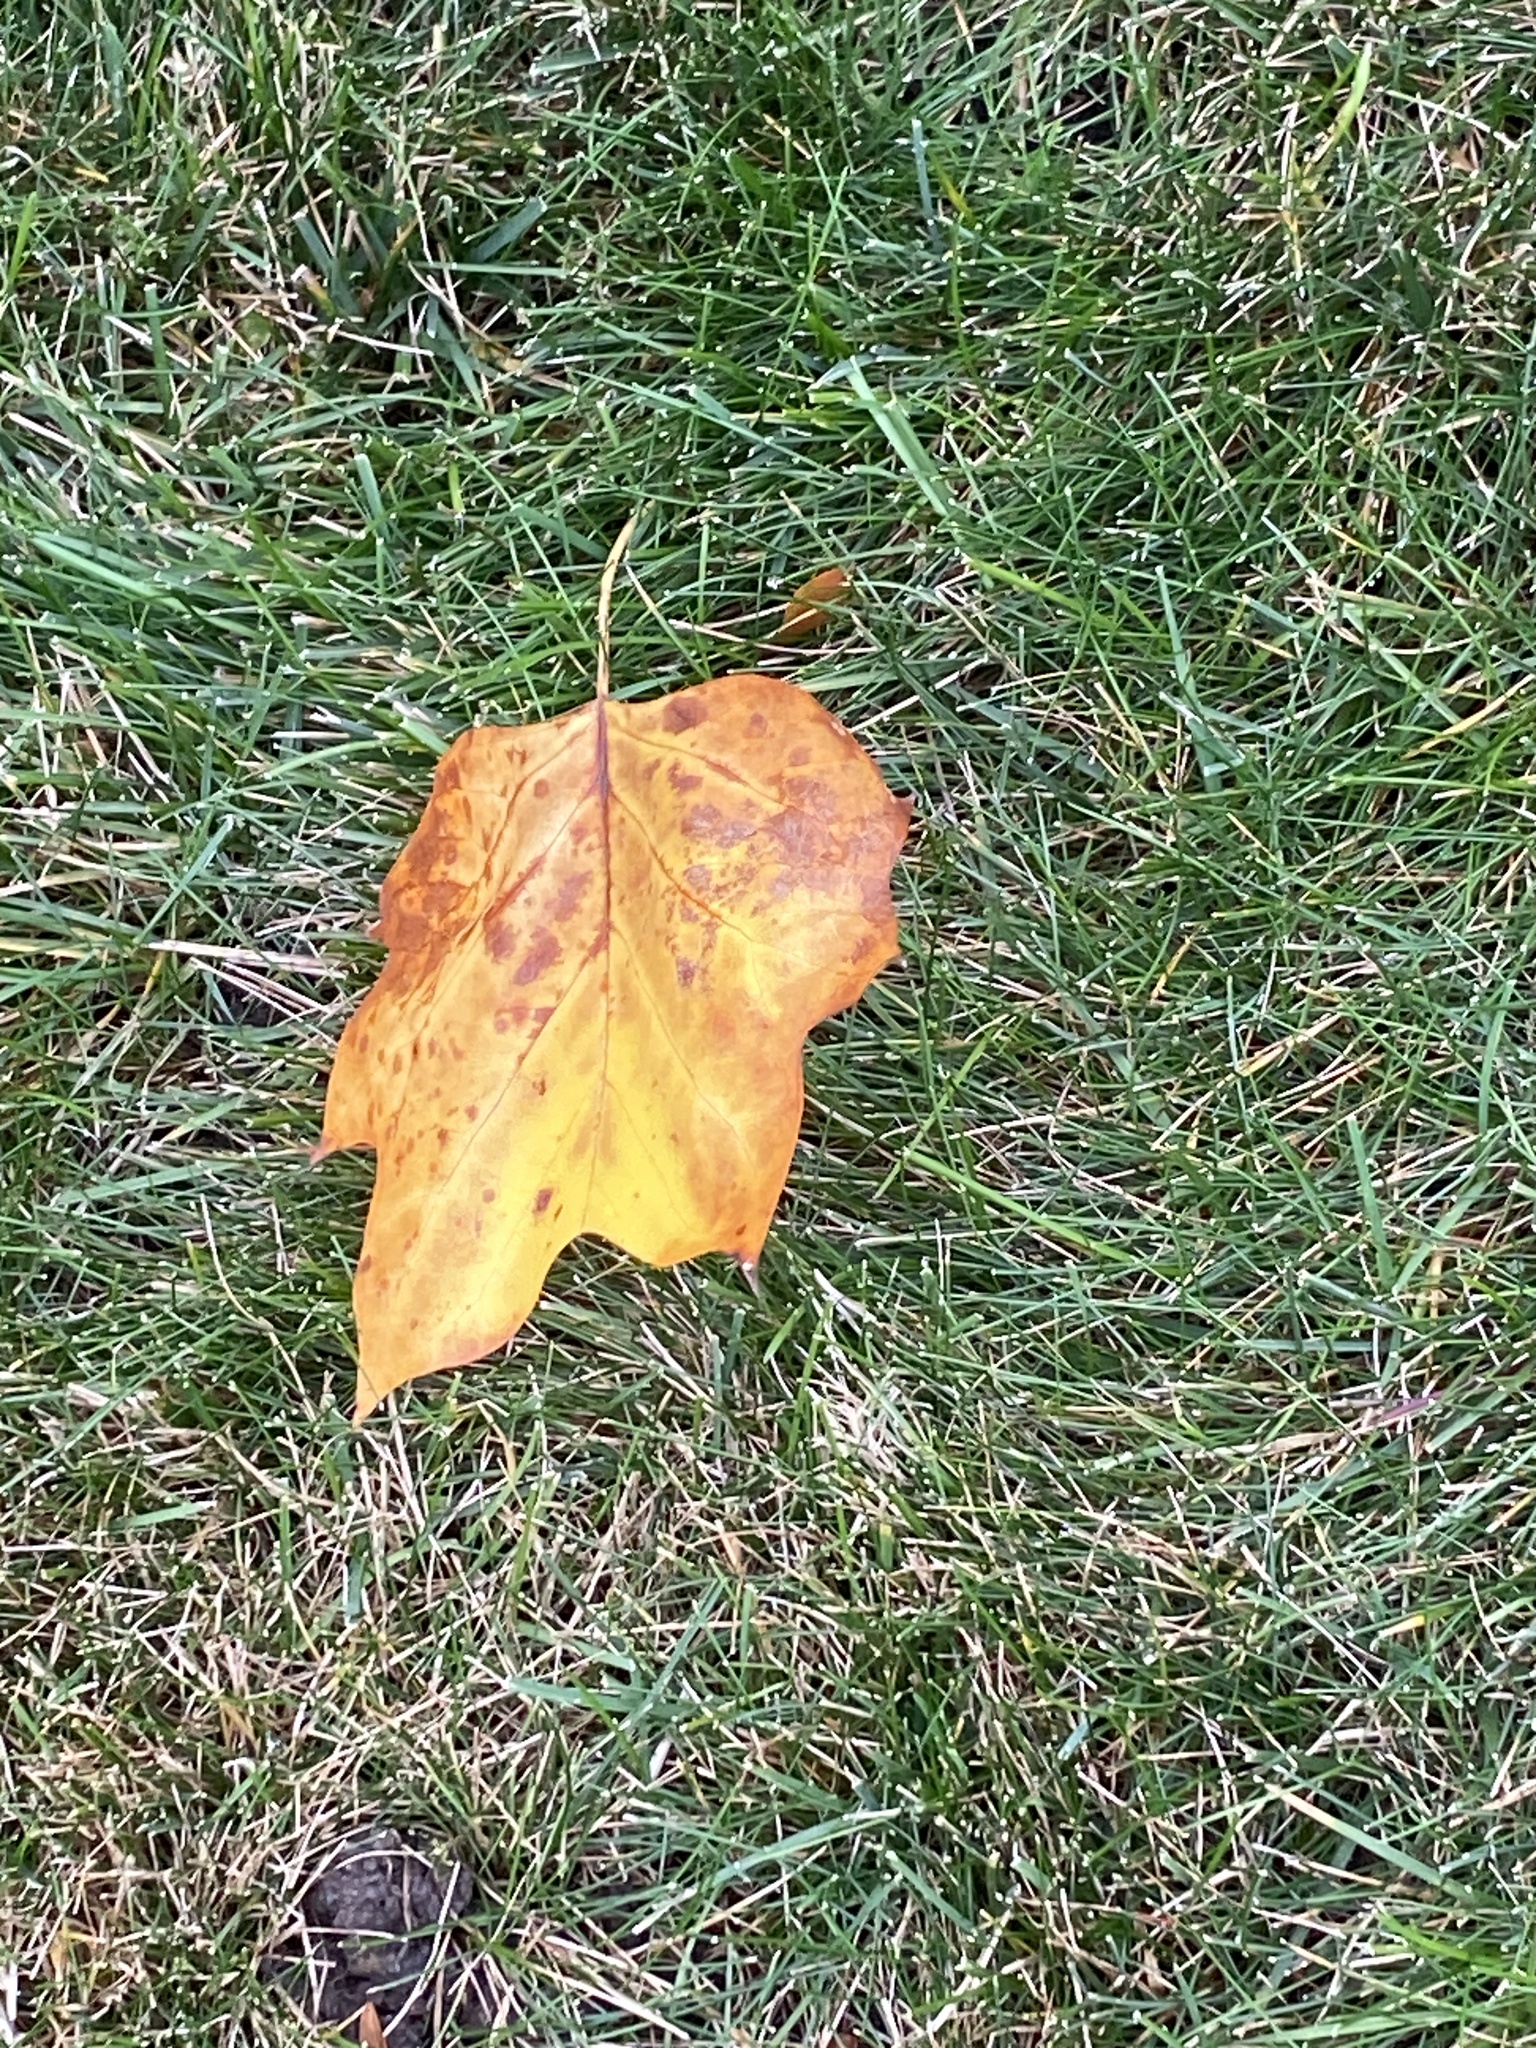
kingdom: Plantae
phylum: Tracheophyta
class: Magnoliopsida
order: Magnoliales
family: Magnoliaceae
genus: Liriodendron
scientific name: Liriodendron tulipifera
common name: Tulip tree
